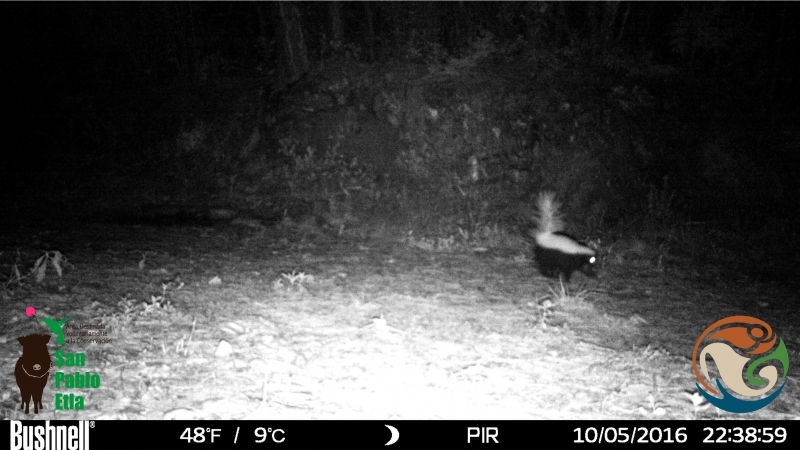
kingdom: Animalia
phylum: Chordata
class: Mammalia
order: Carnivora
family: Mephitidae
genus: Conepatus
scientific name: Conepatus leuconotus
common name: Eastern hog-nosed skunk
